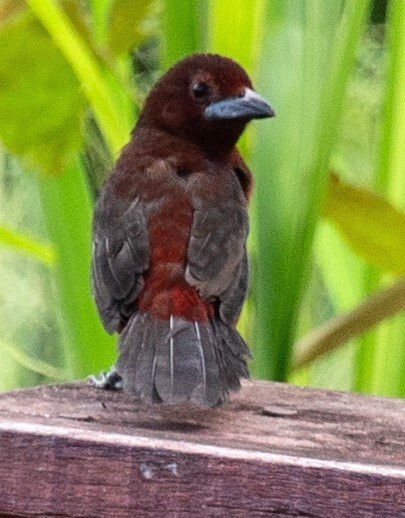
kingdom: Animalia
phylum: Chordata
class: Aves
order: Passeriformes
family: Thraupidae
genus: Ramphocelus
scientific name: Ramphocelus carbo
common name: Silver-beaked tanager
